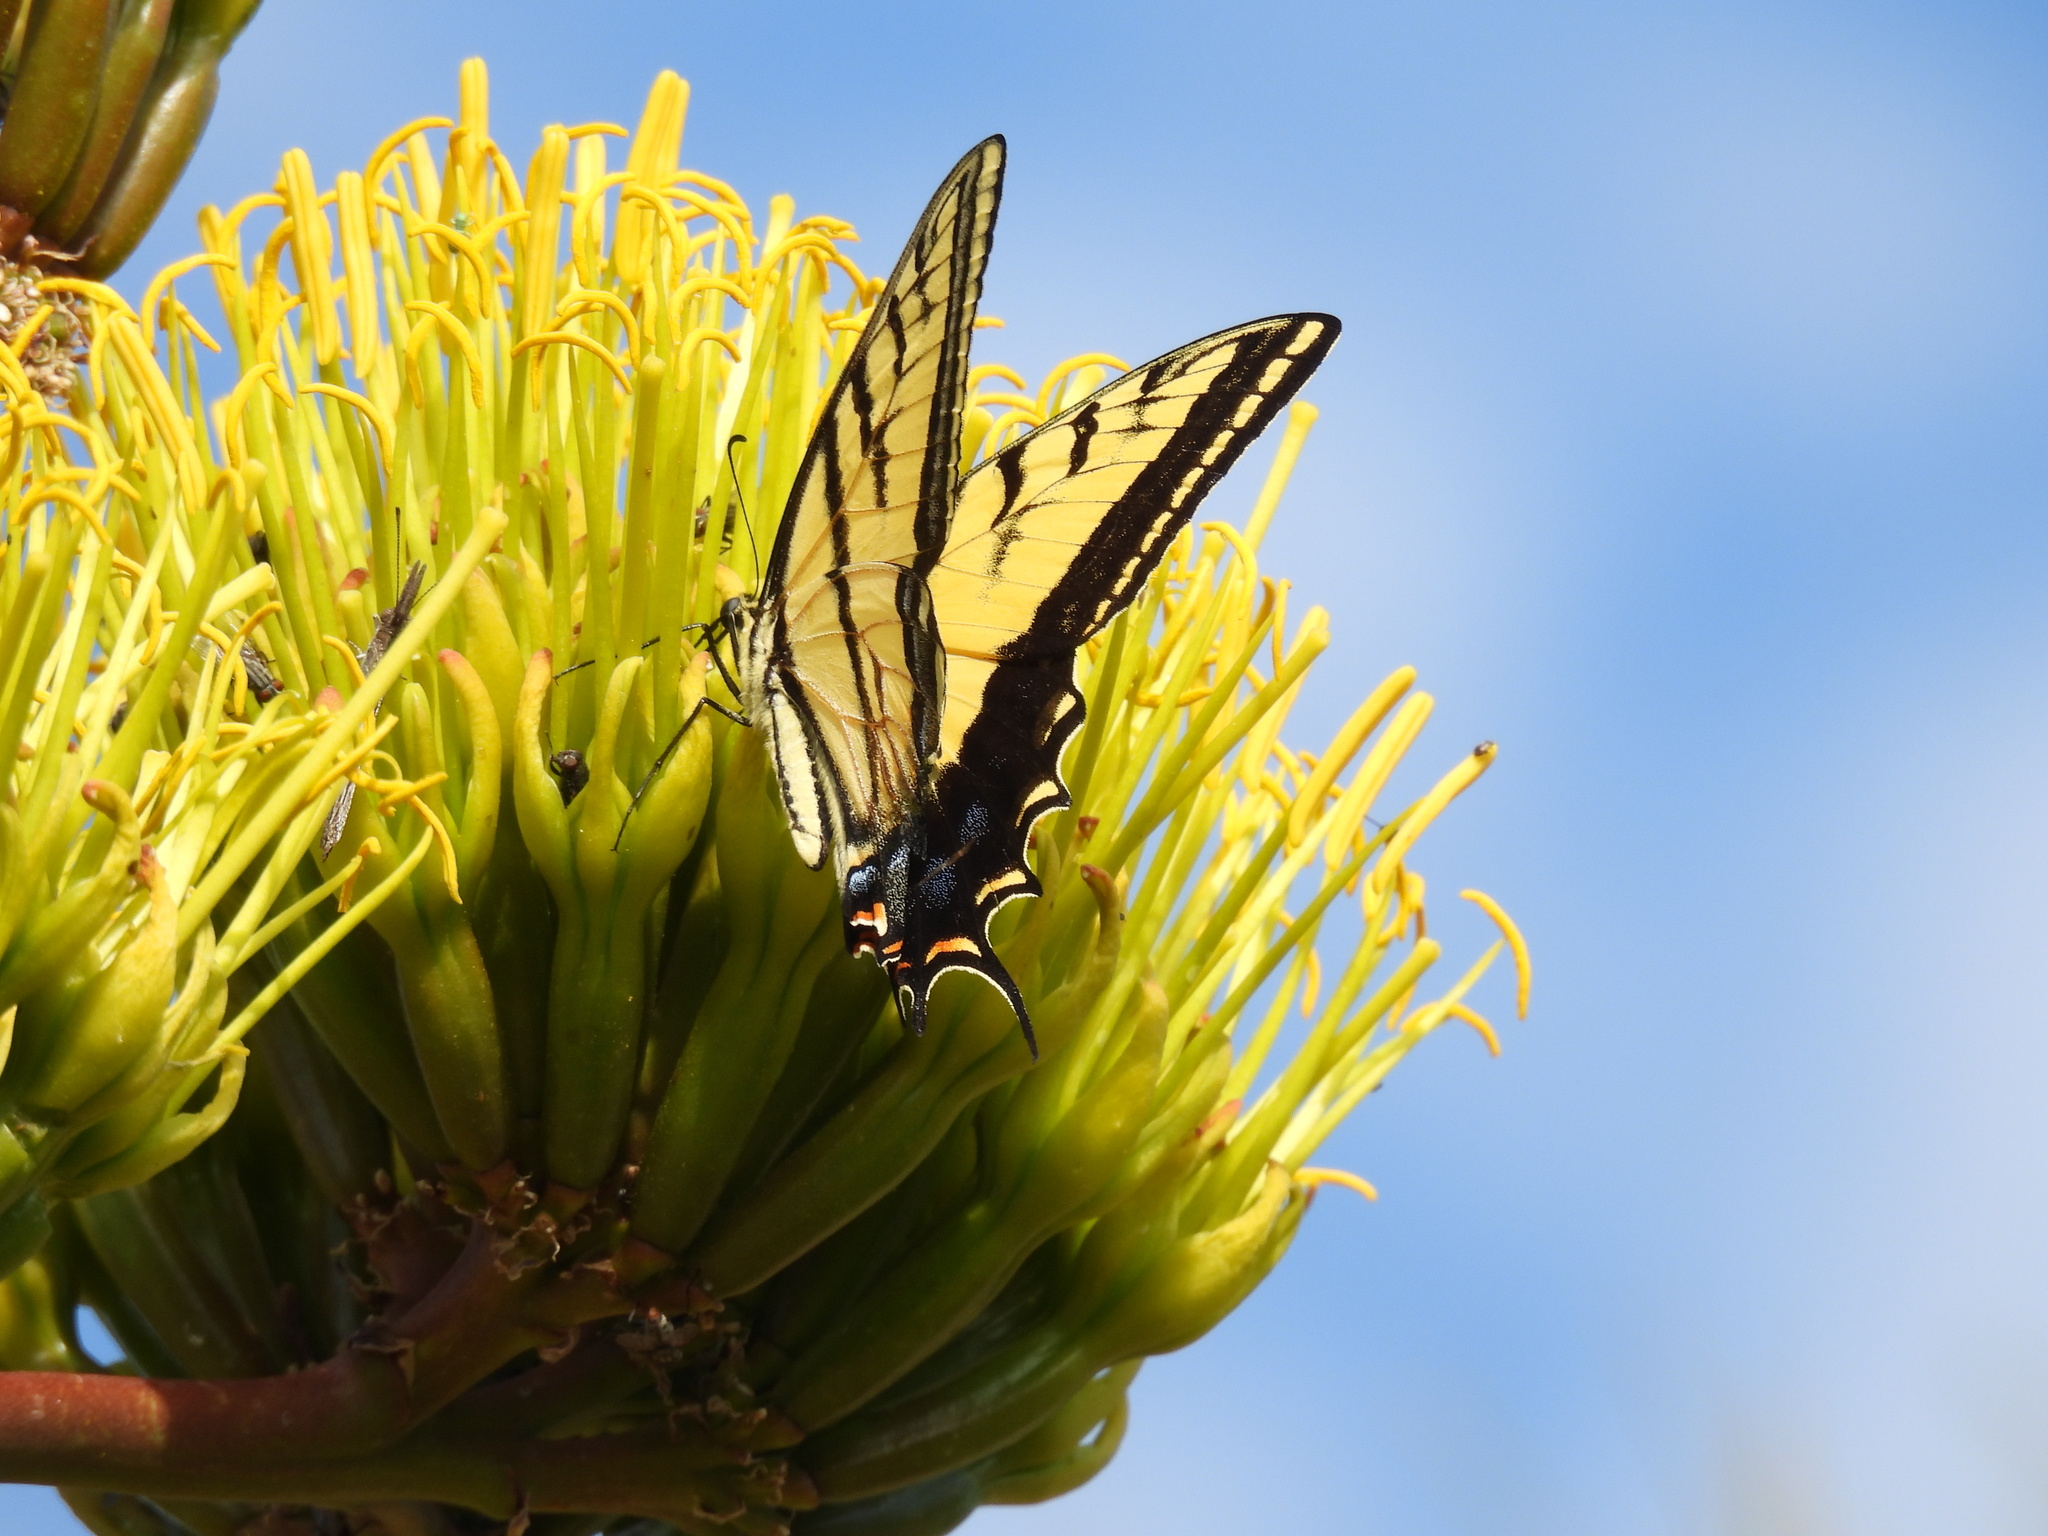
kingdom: Animalia
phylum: Arthropoda
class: Insecta
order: Lepidoptera
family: Papilionidae
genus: Papilio
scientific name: Papilio multicaudata
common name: Two-tailed tiger swallowtail
